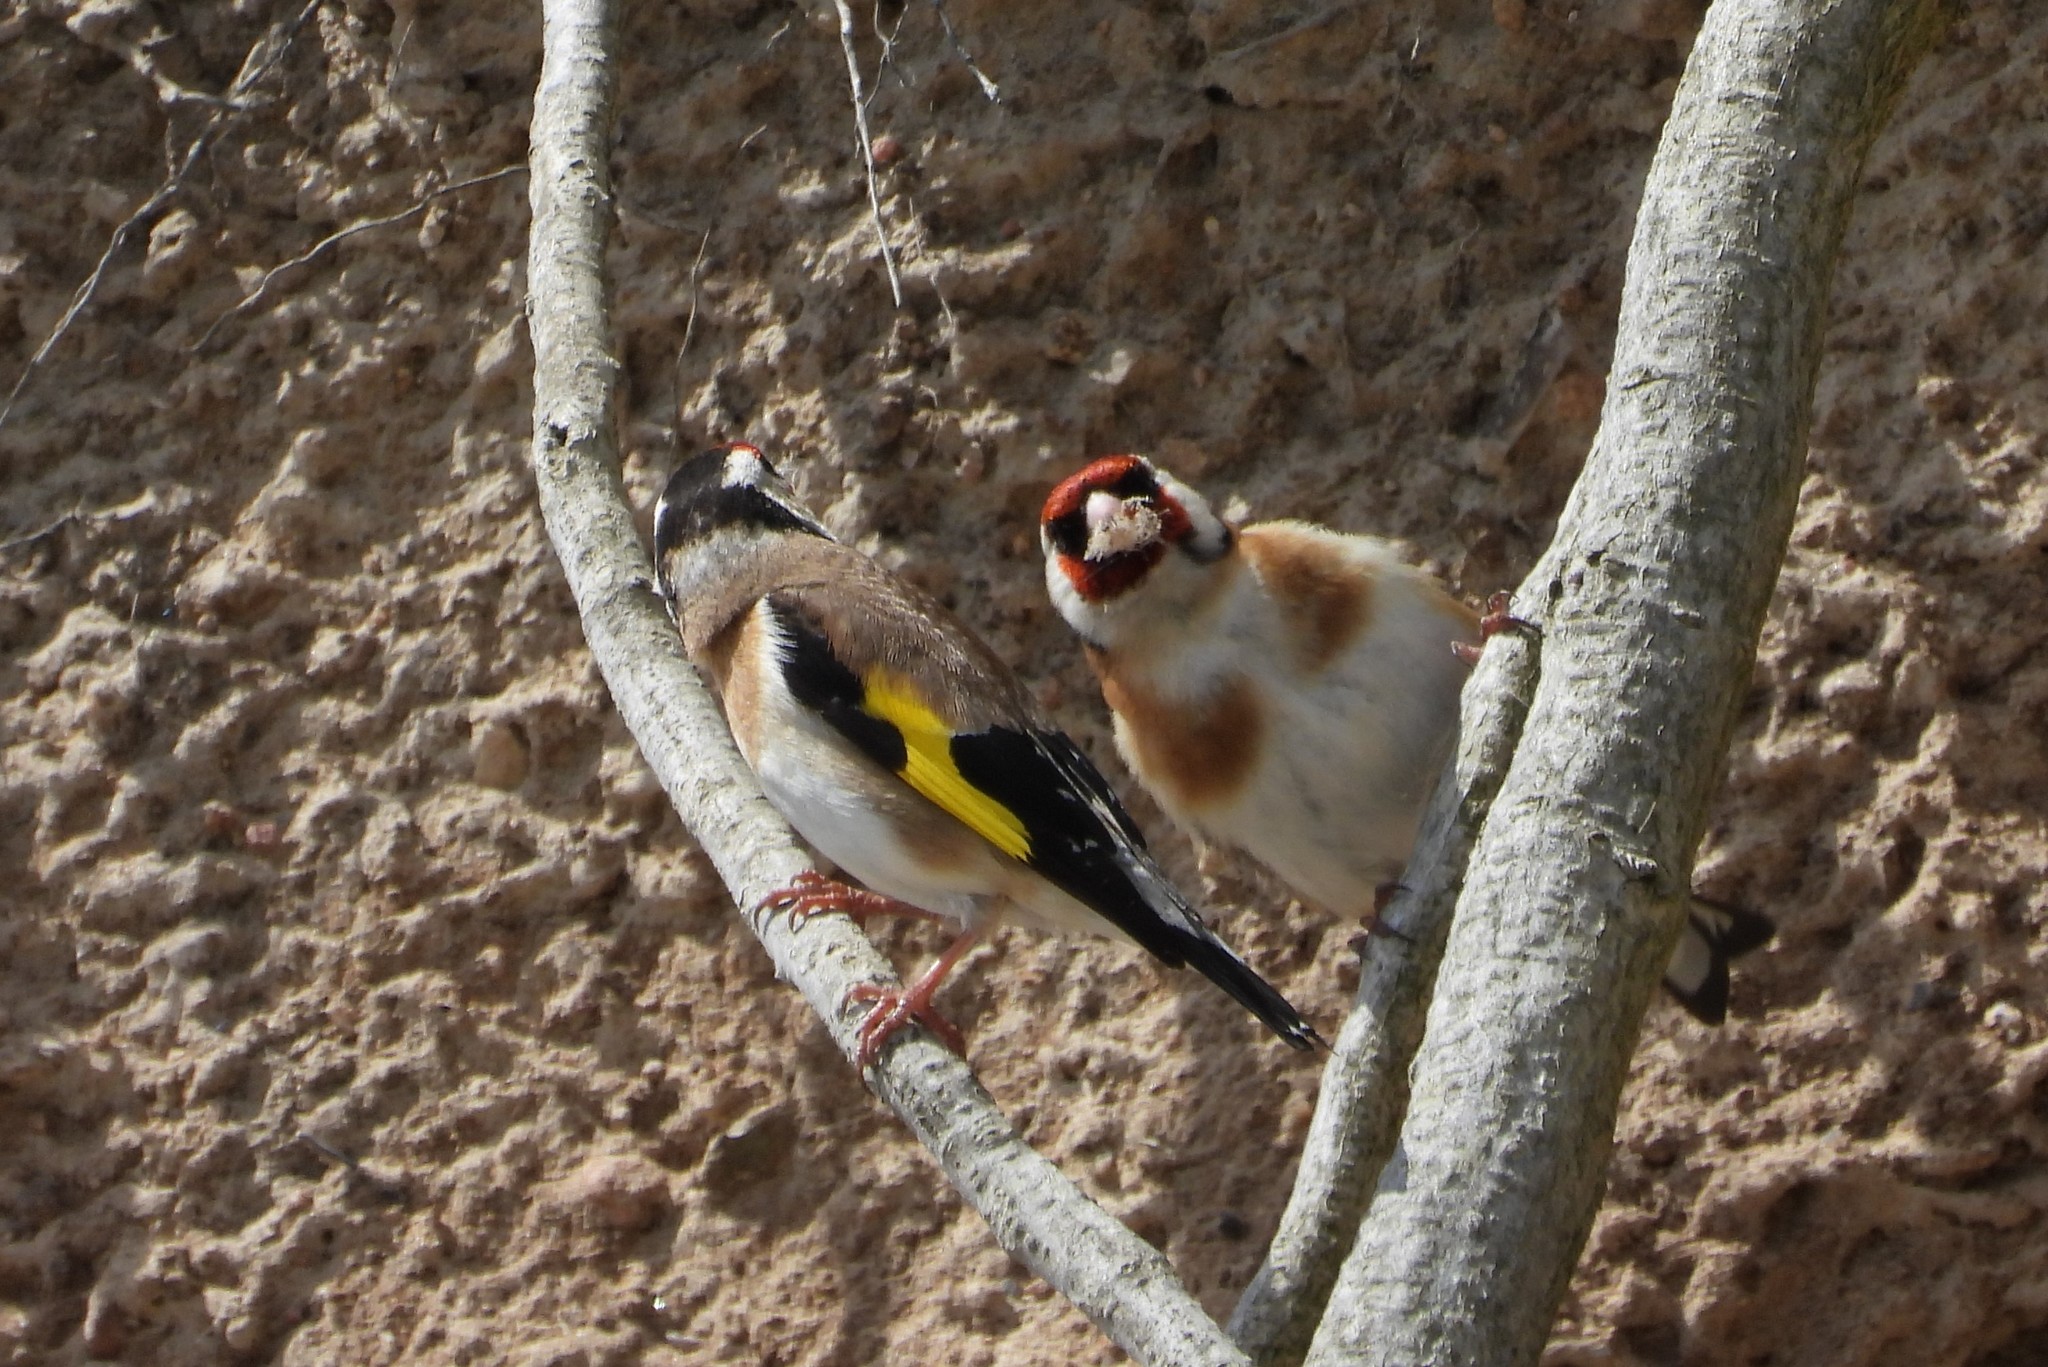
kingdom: Animalia
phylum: Chordata
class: Aves
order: Passeriformes
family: Fringillidae
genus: Carduelis
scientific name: Carduelis carduelis
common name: European goldfinch
